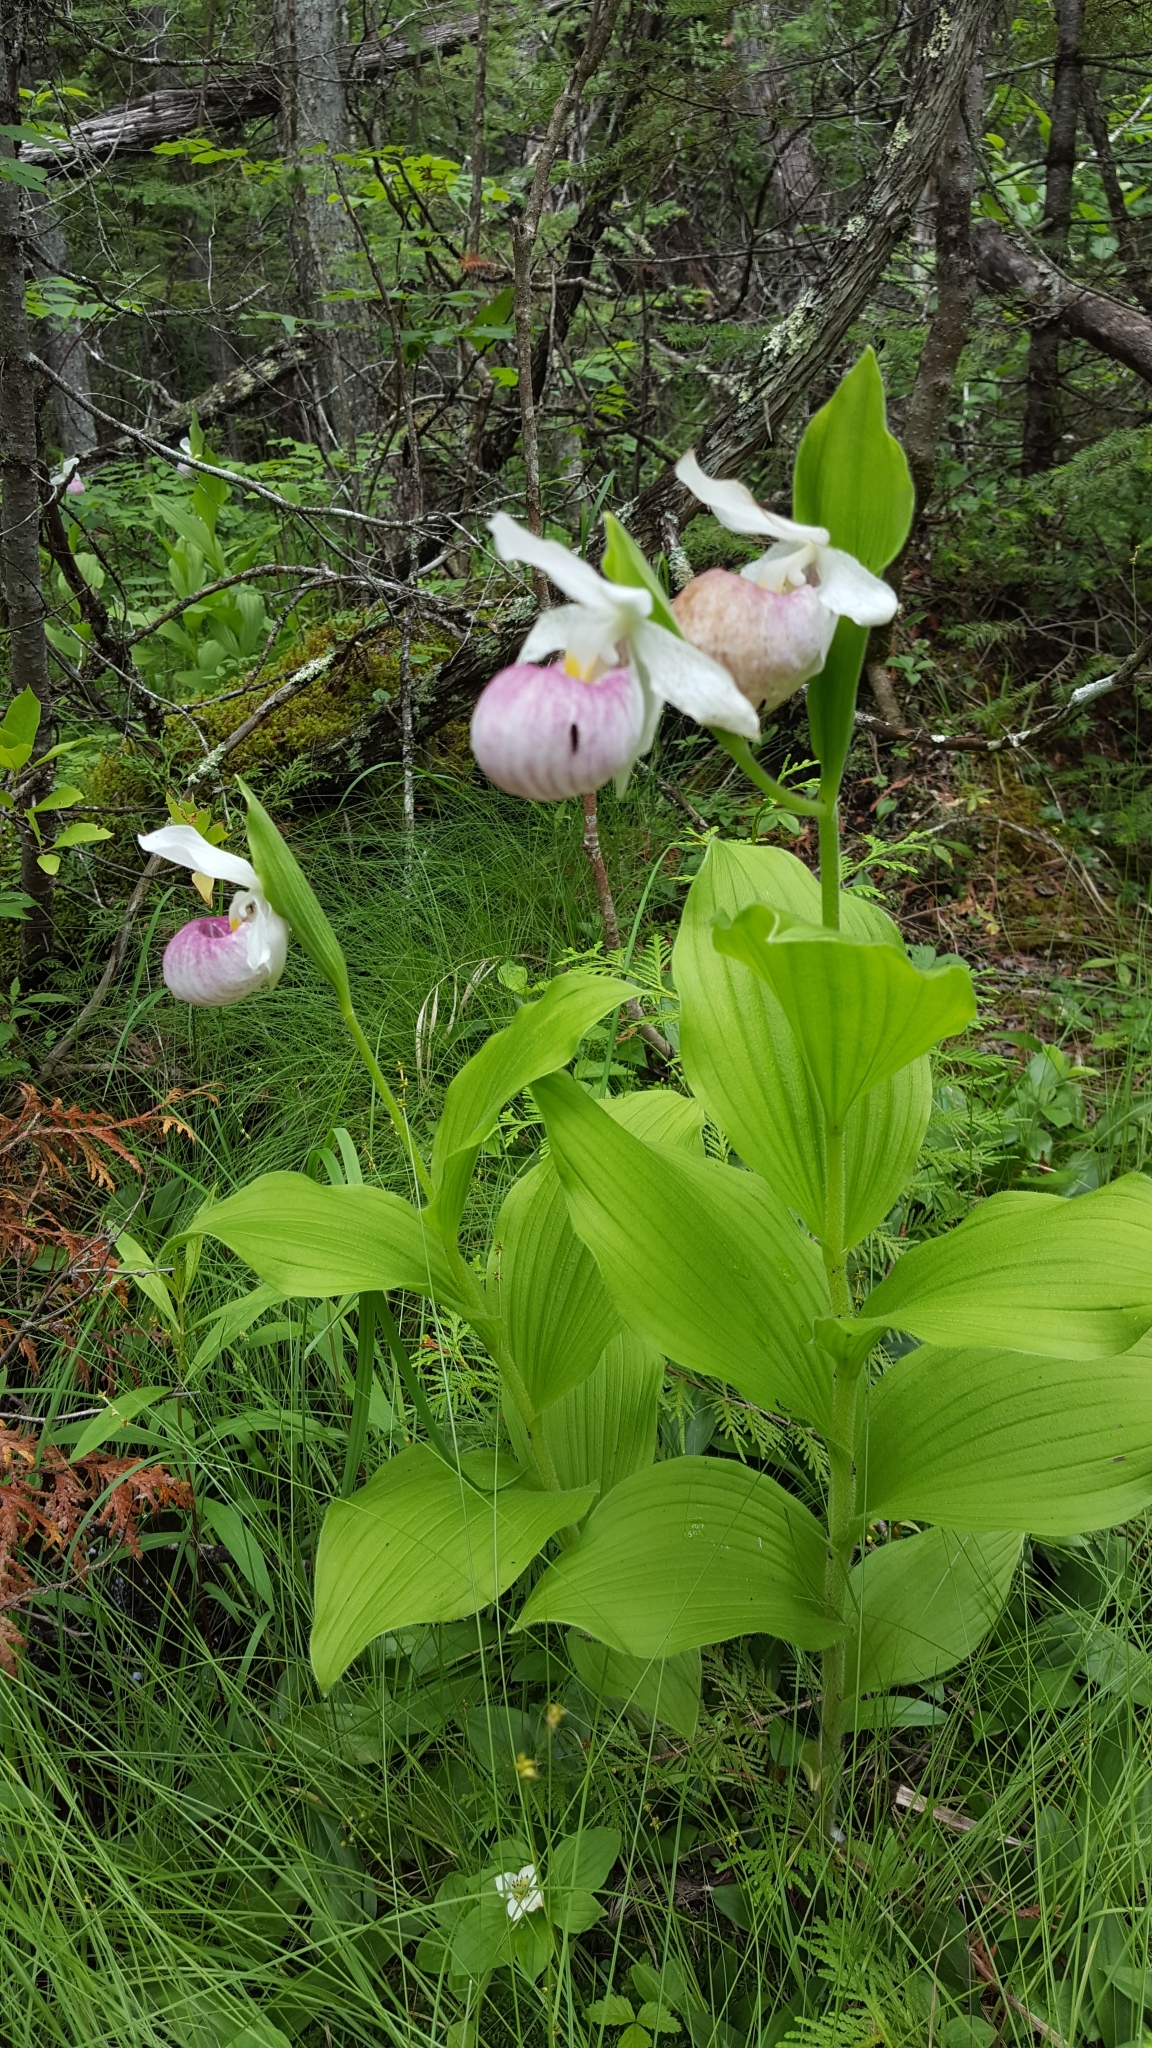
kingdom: Plantae
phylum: Tracheophyta
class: Liliopsida
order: Asparagales
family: Orchidaceae
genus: Cypripedium
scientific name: Cypripedium reginae
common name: Queen lady's-slipper
